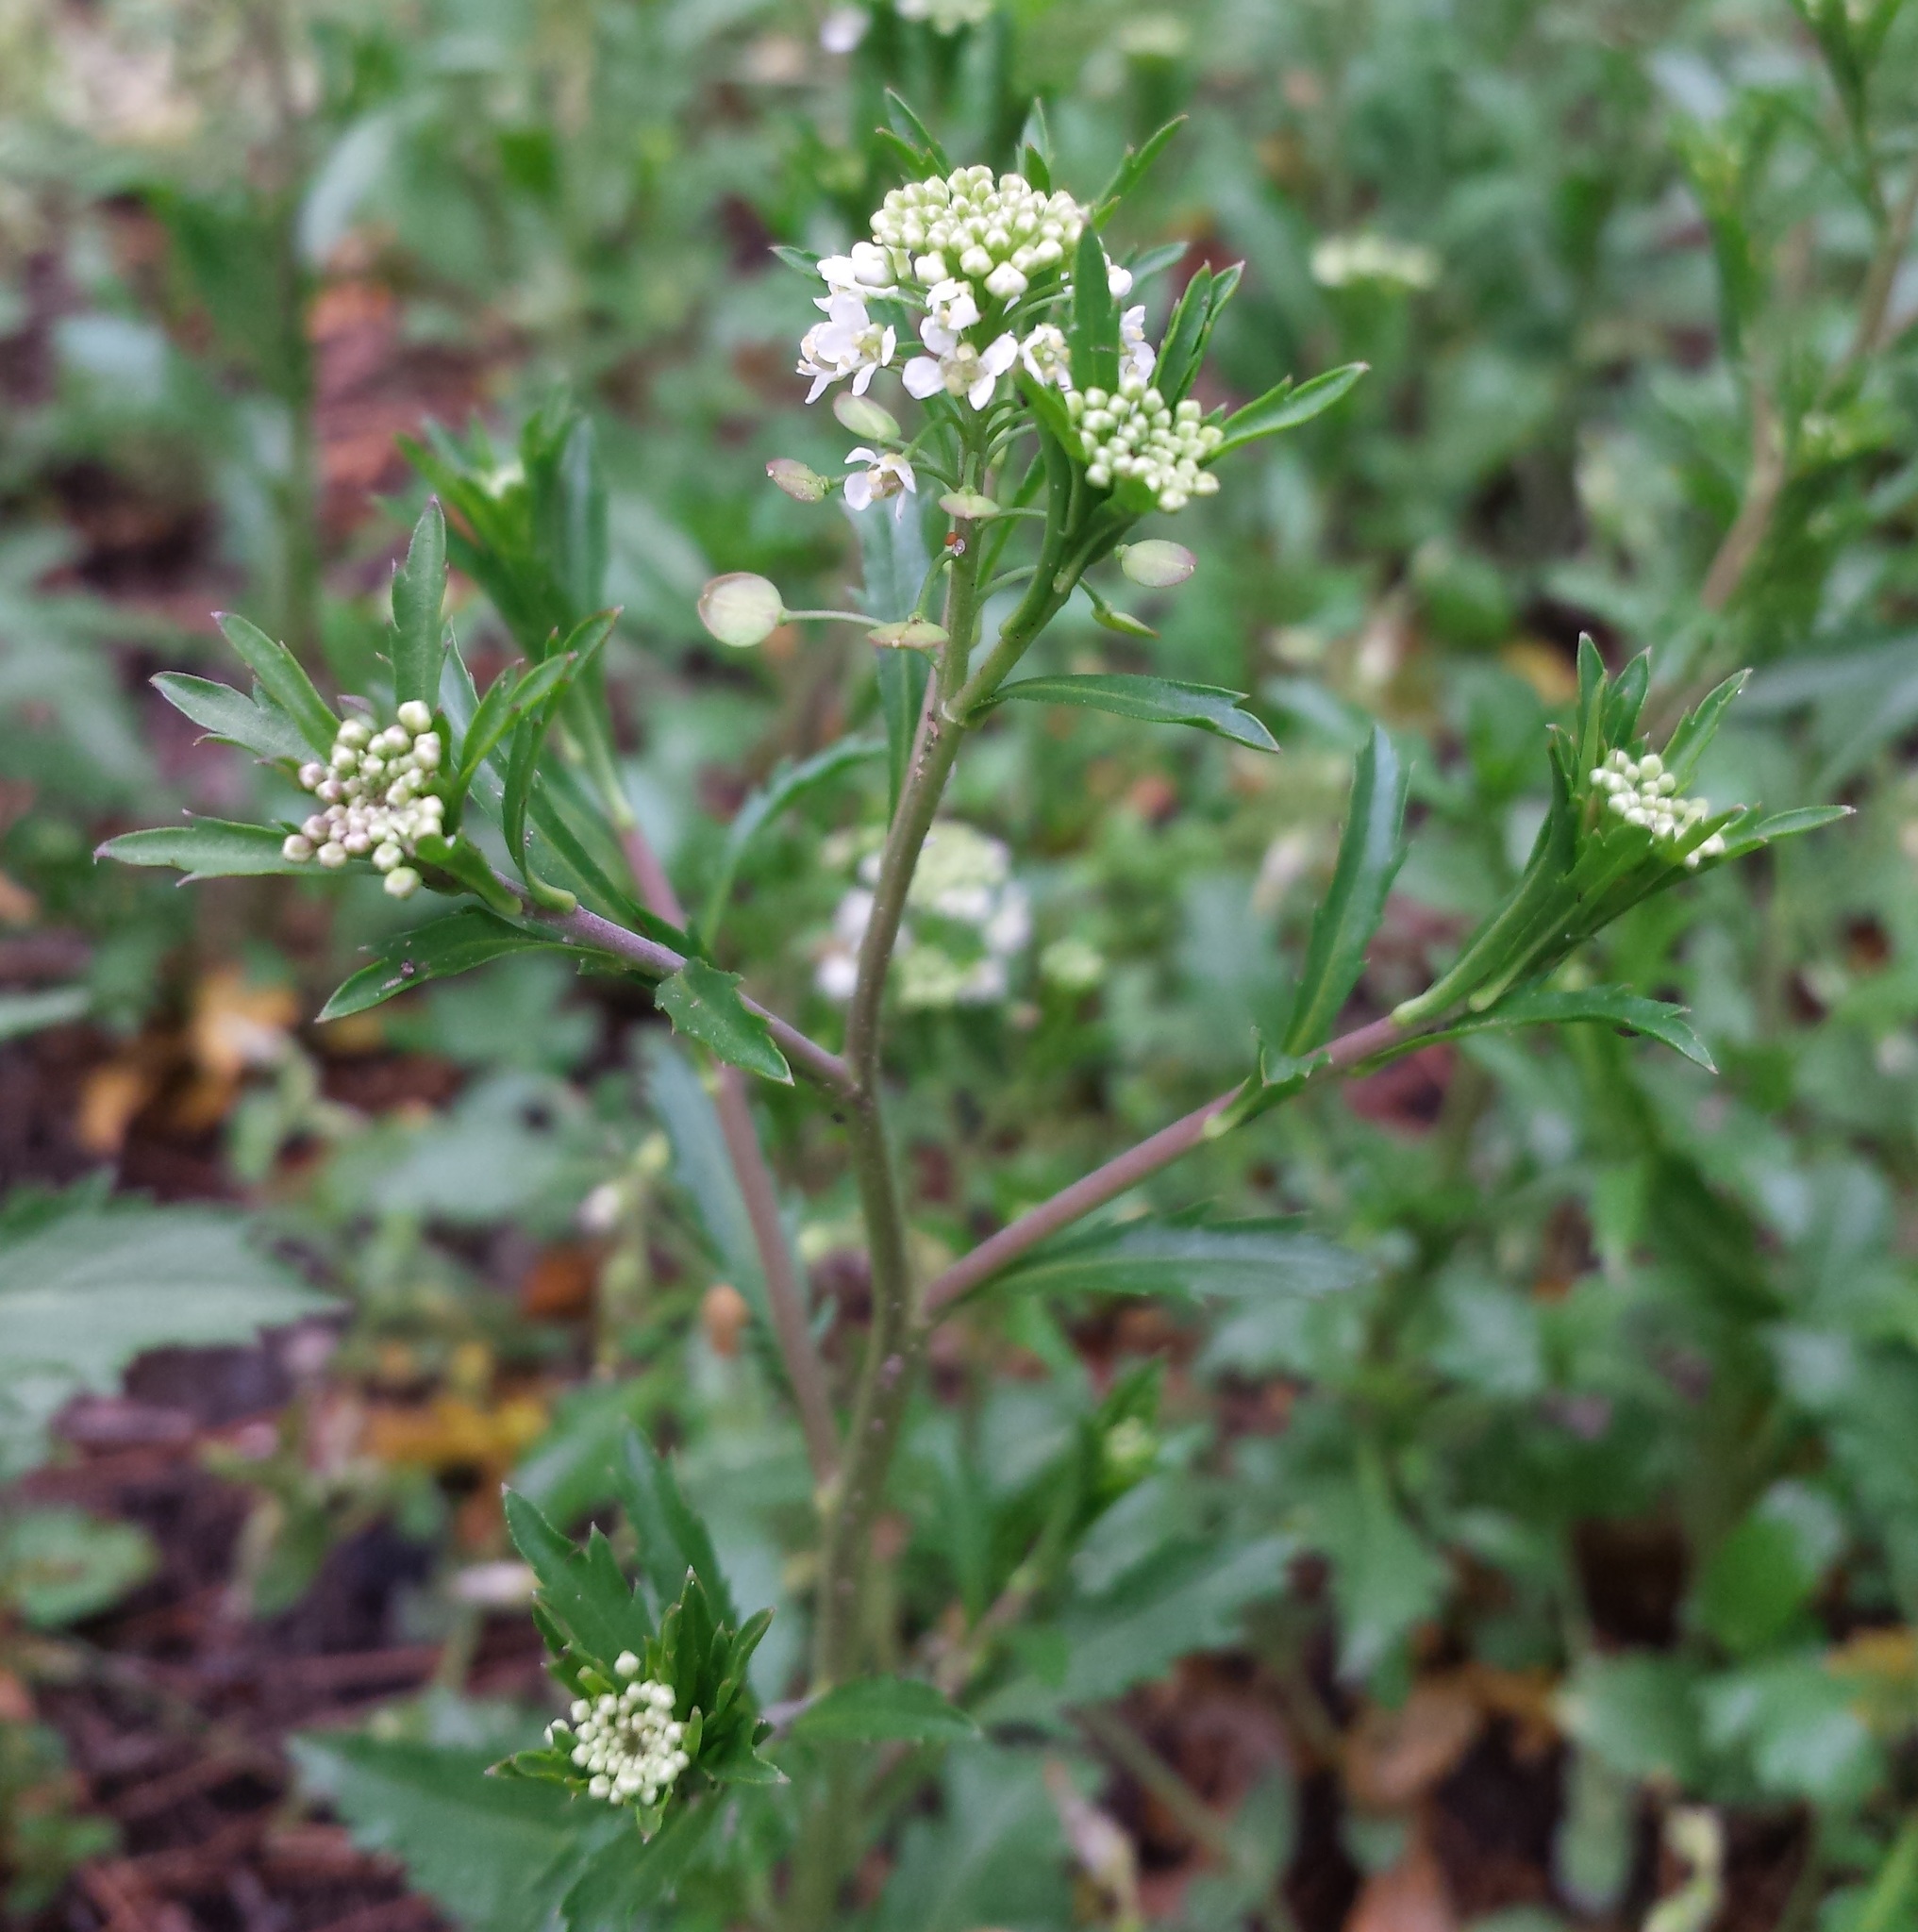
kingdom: Plantae
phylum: Tracheophyta
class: Magnoliopsida
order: Brassicales
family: Brassicaceae
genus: Lepidium
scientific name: Lepidium virginicum
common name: Least pepperwort
